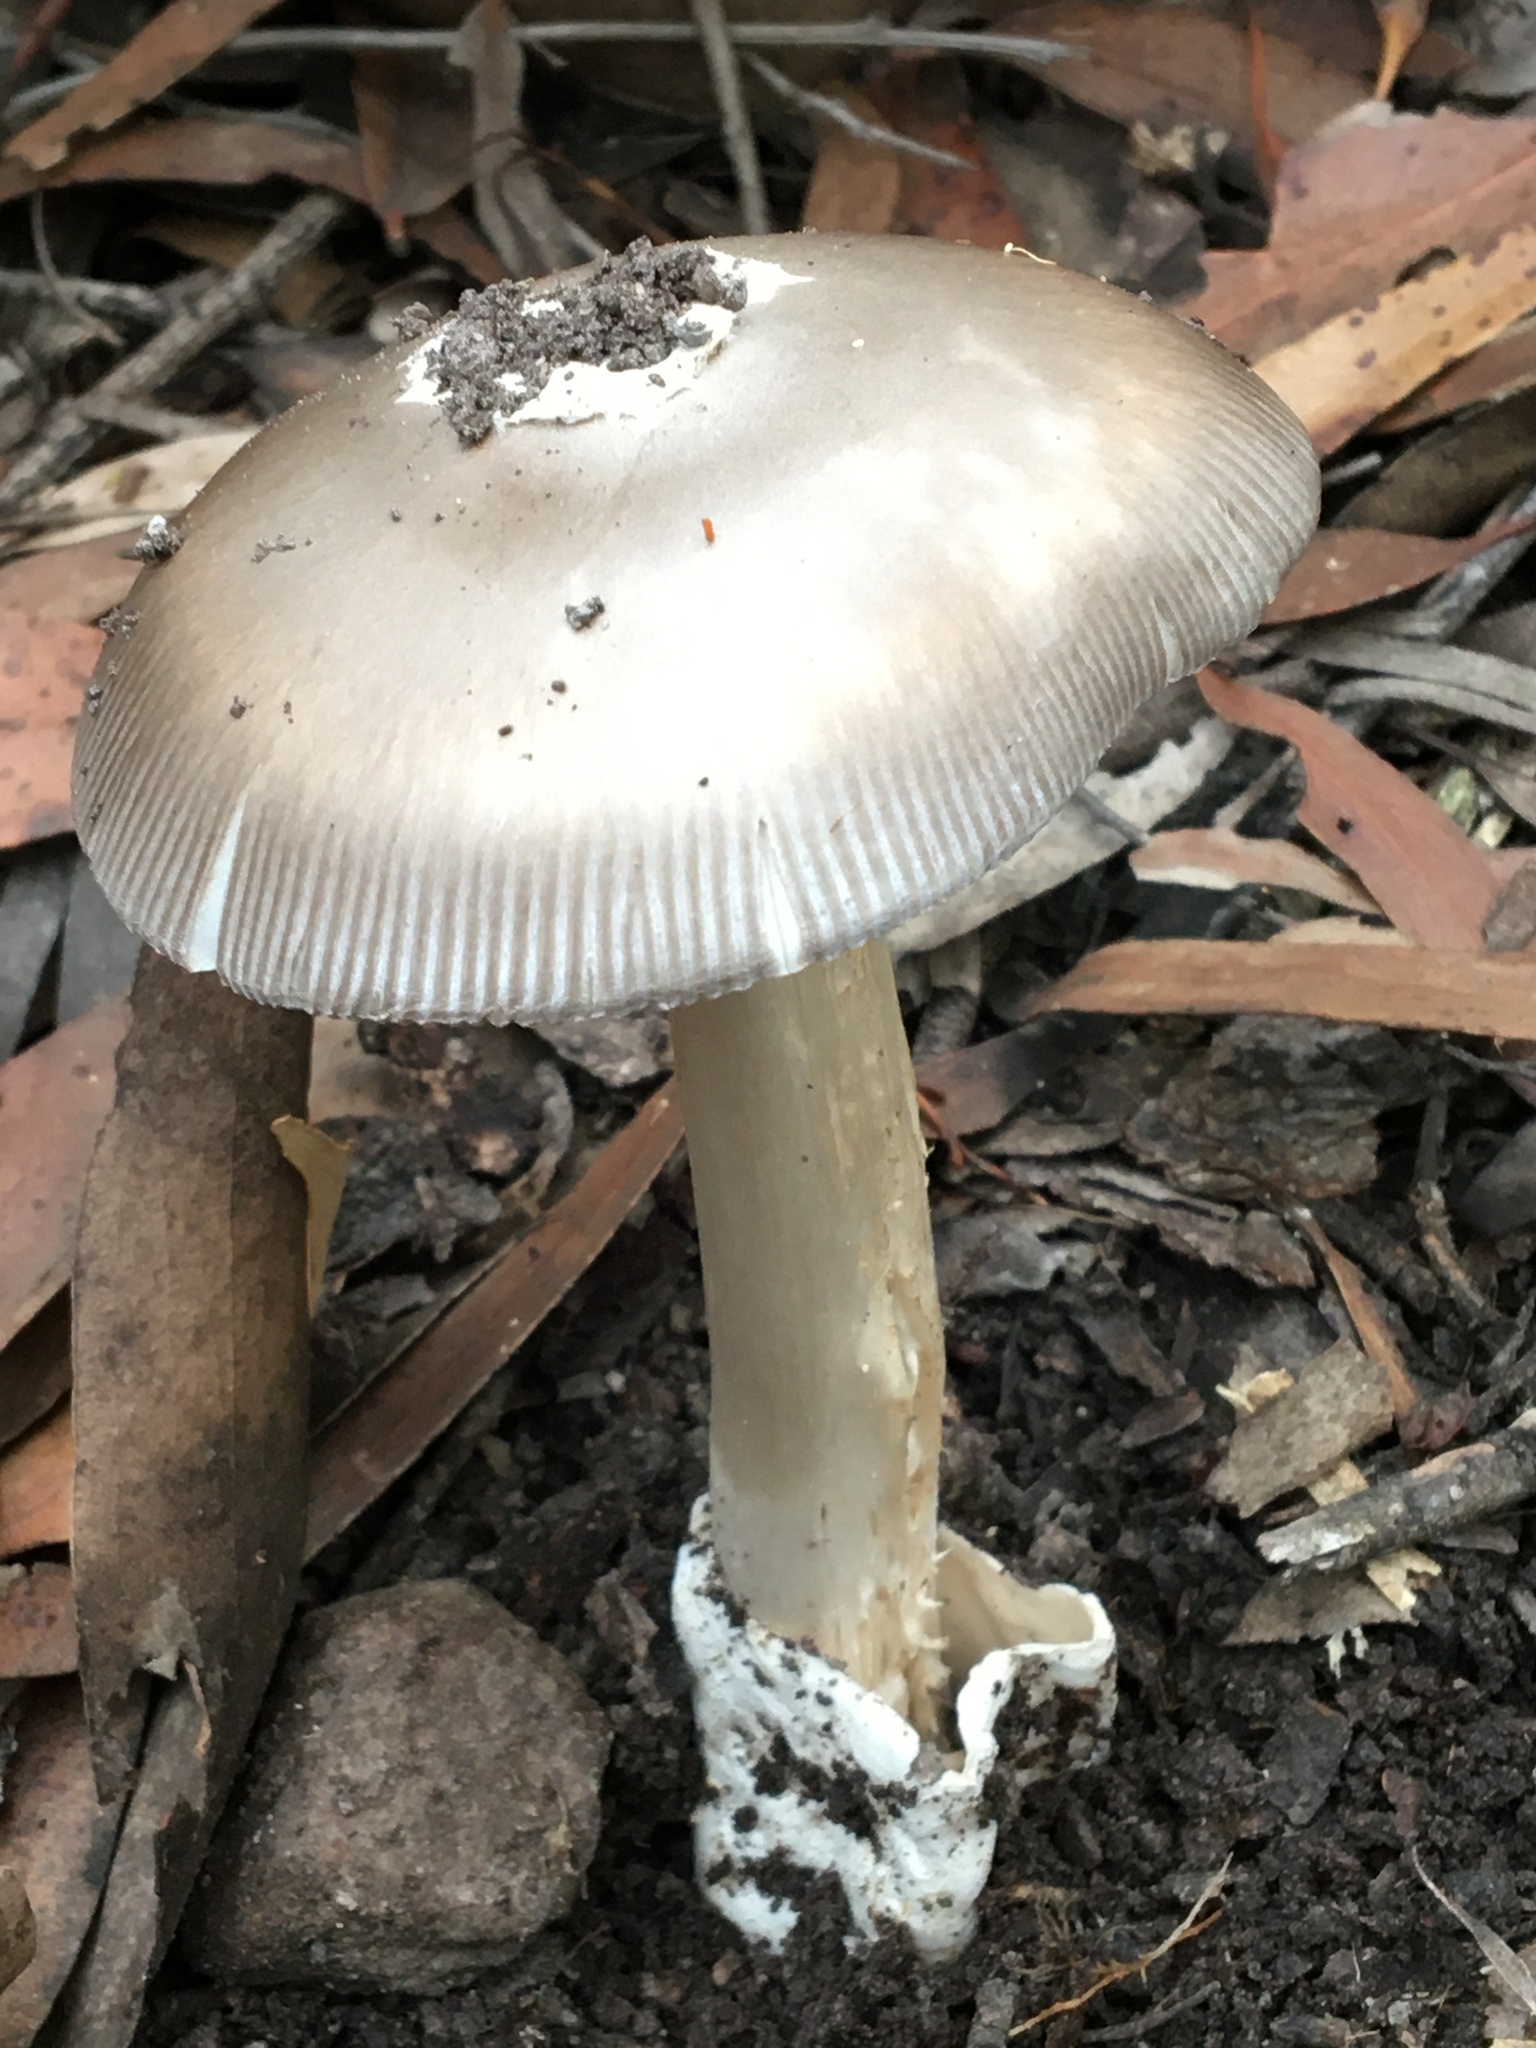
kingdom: Fungi
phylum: Basidiomycota
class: Agaricomycetes
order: Agaricales
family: Amanitaceae
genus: Amanita
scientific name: Amanita cheelii
